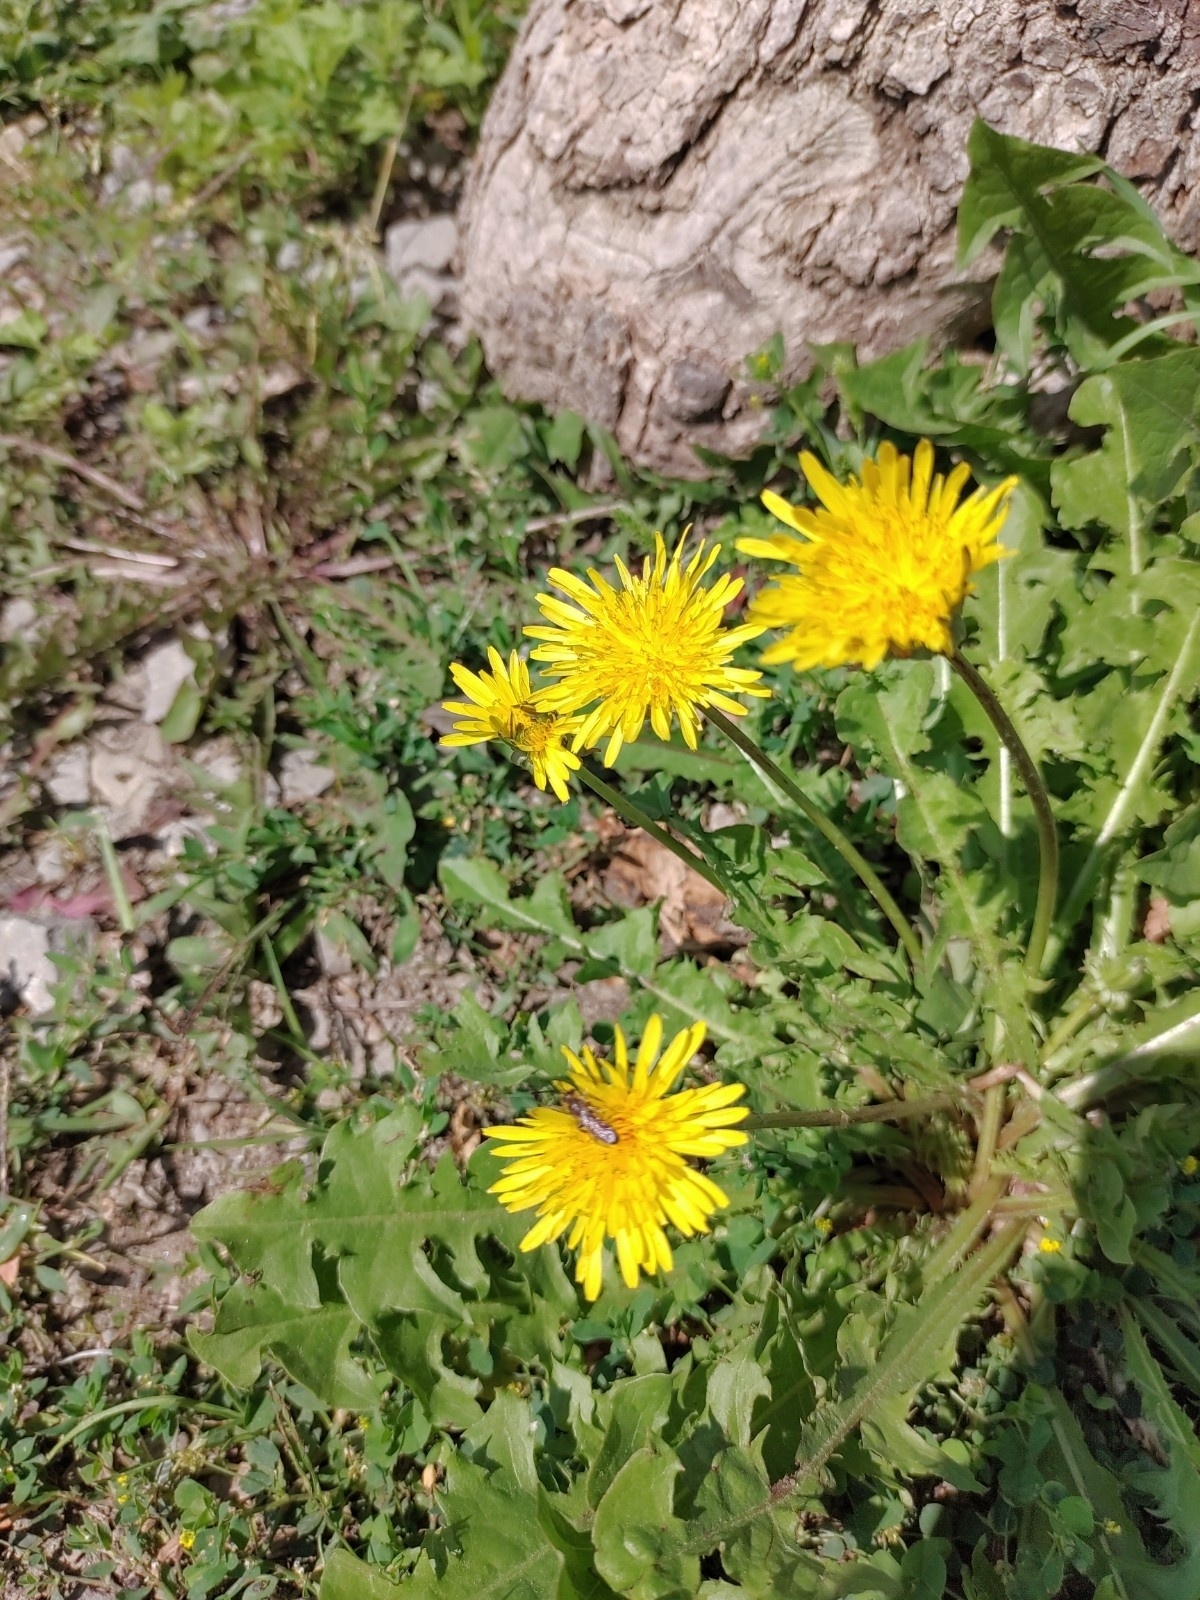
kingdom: Plantae
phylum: Tracheophyta
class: Magnoliopsida
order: Asterales
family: Asteraceae
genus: Taraxacum
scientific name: Taraxacum officinale
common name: Common dandelion
